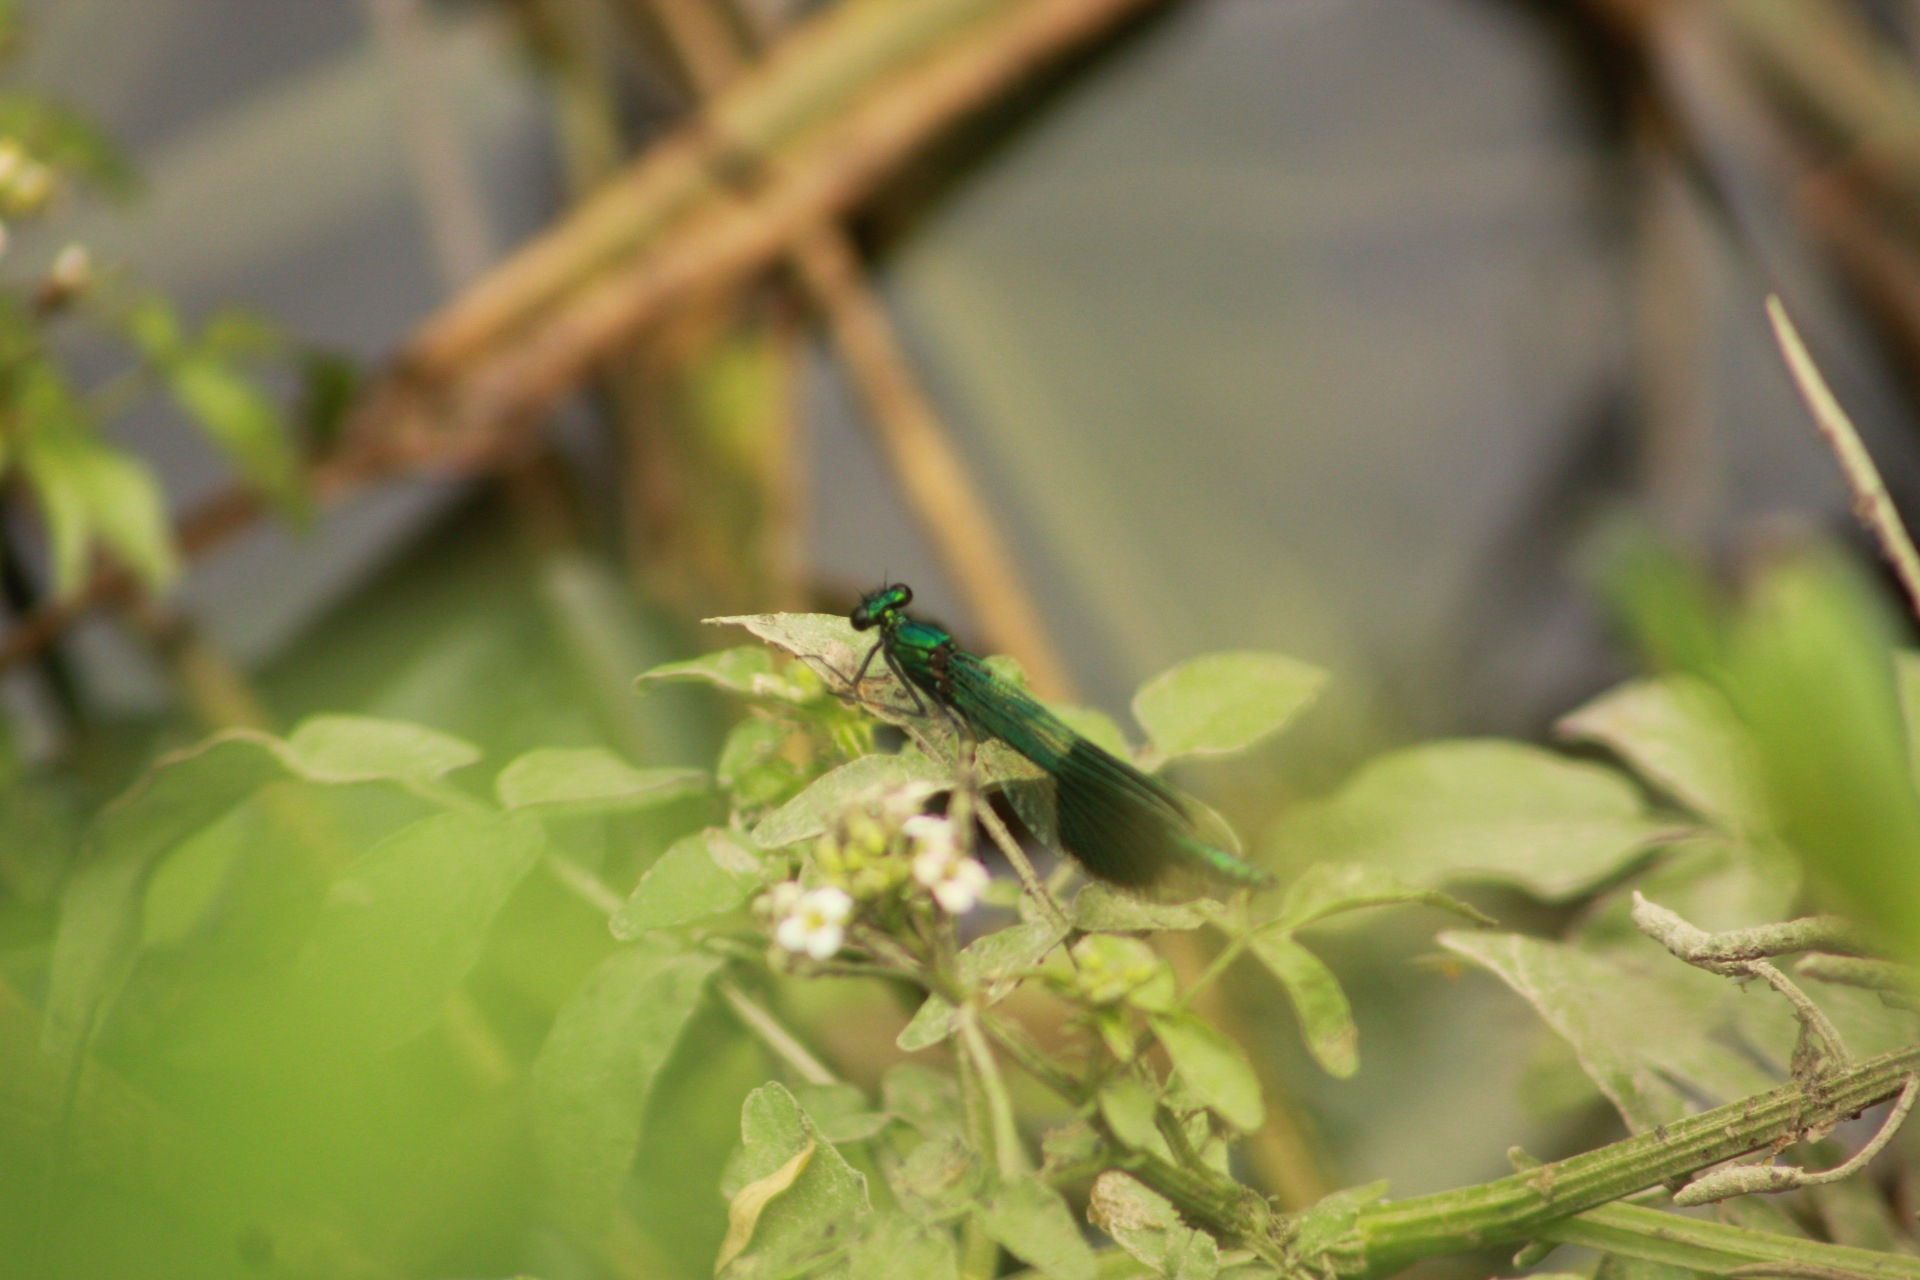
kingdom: Animalia
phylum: Arthropoda
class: Insecta
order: Odonata
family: Calopterygidae
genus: Calopteryx
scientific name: Calopteryx splendens
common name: Banded demoiselle
